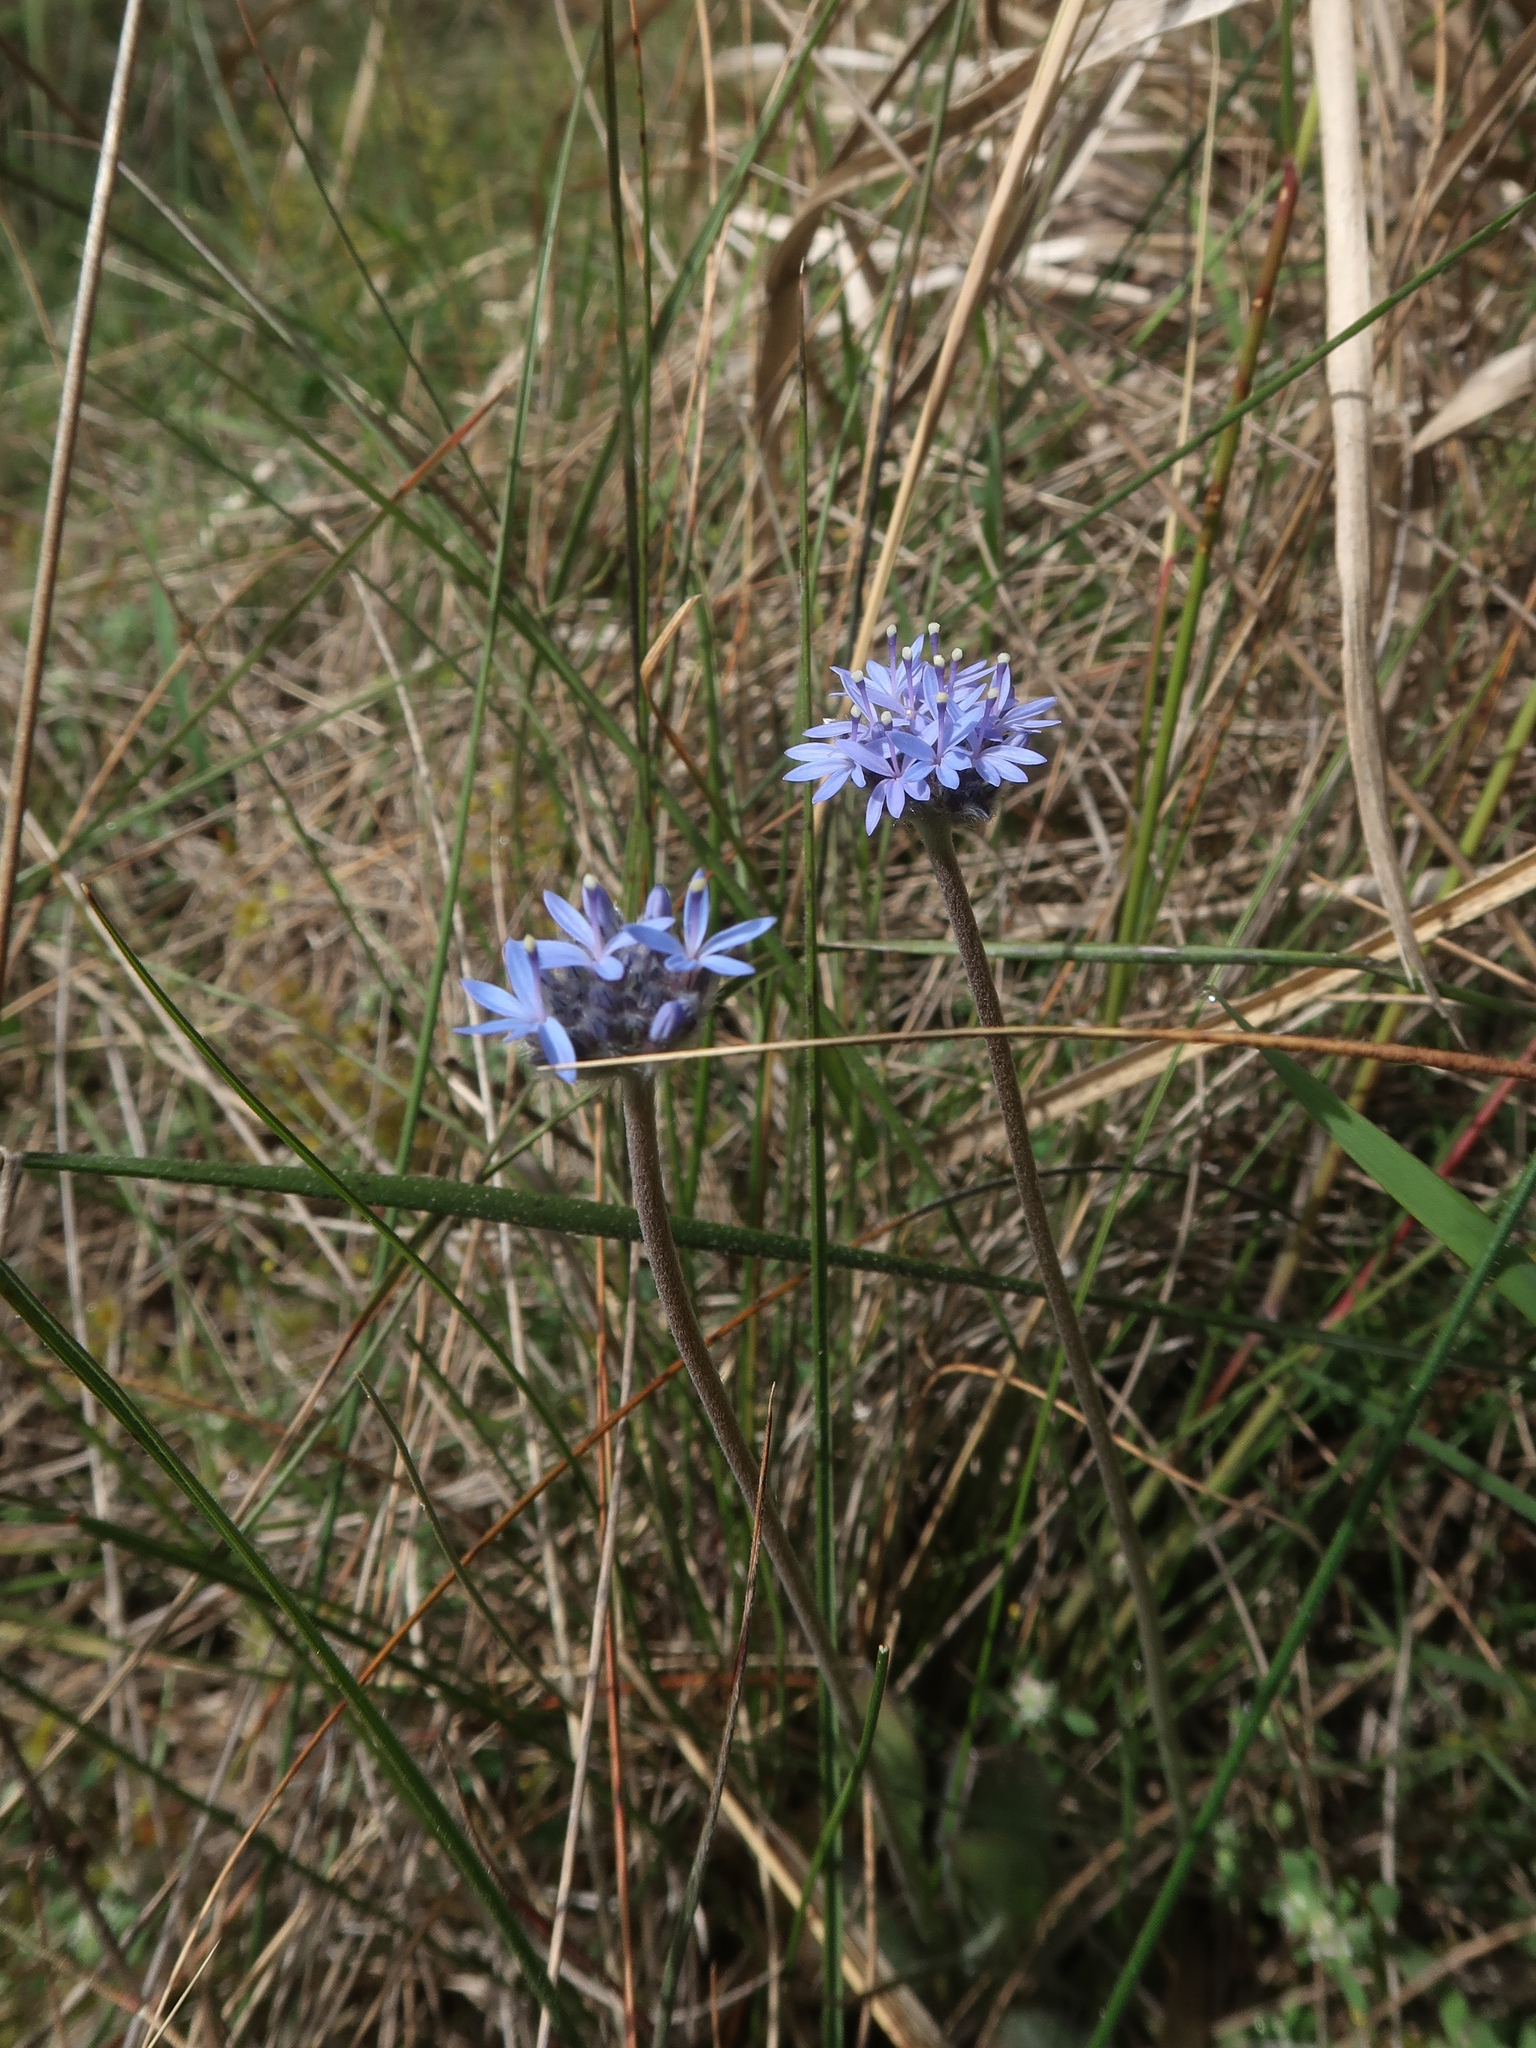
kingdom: Plantae
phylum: Tracheophyta
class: Magnoliopsida
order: Asterales
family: Goodeniaceae
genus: Brunonia
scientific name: Brunonia australis
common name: Blue pincushion
